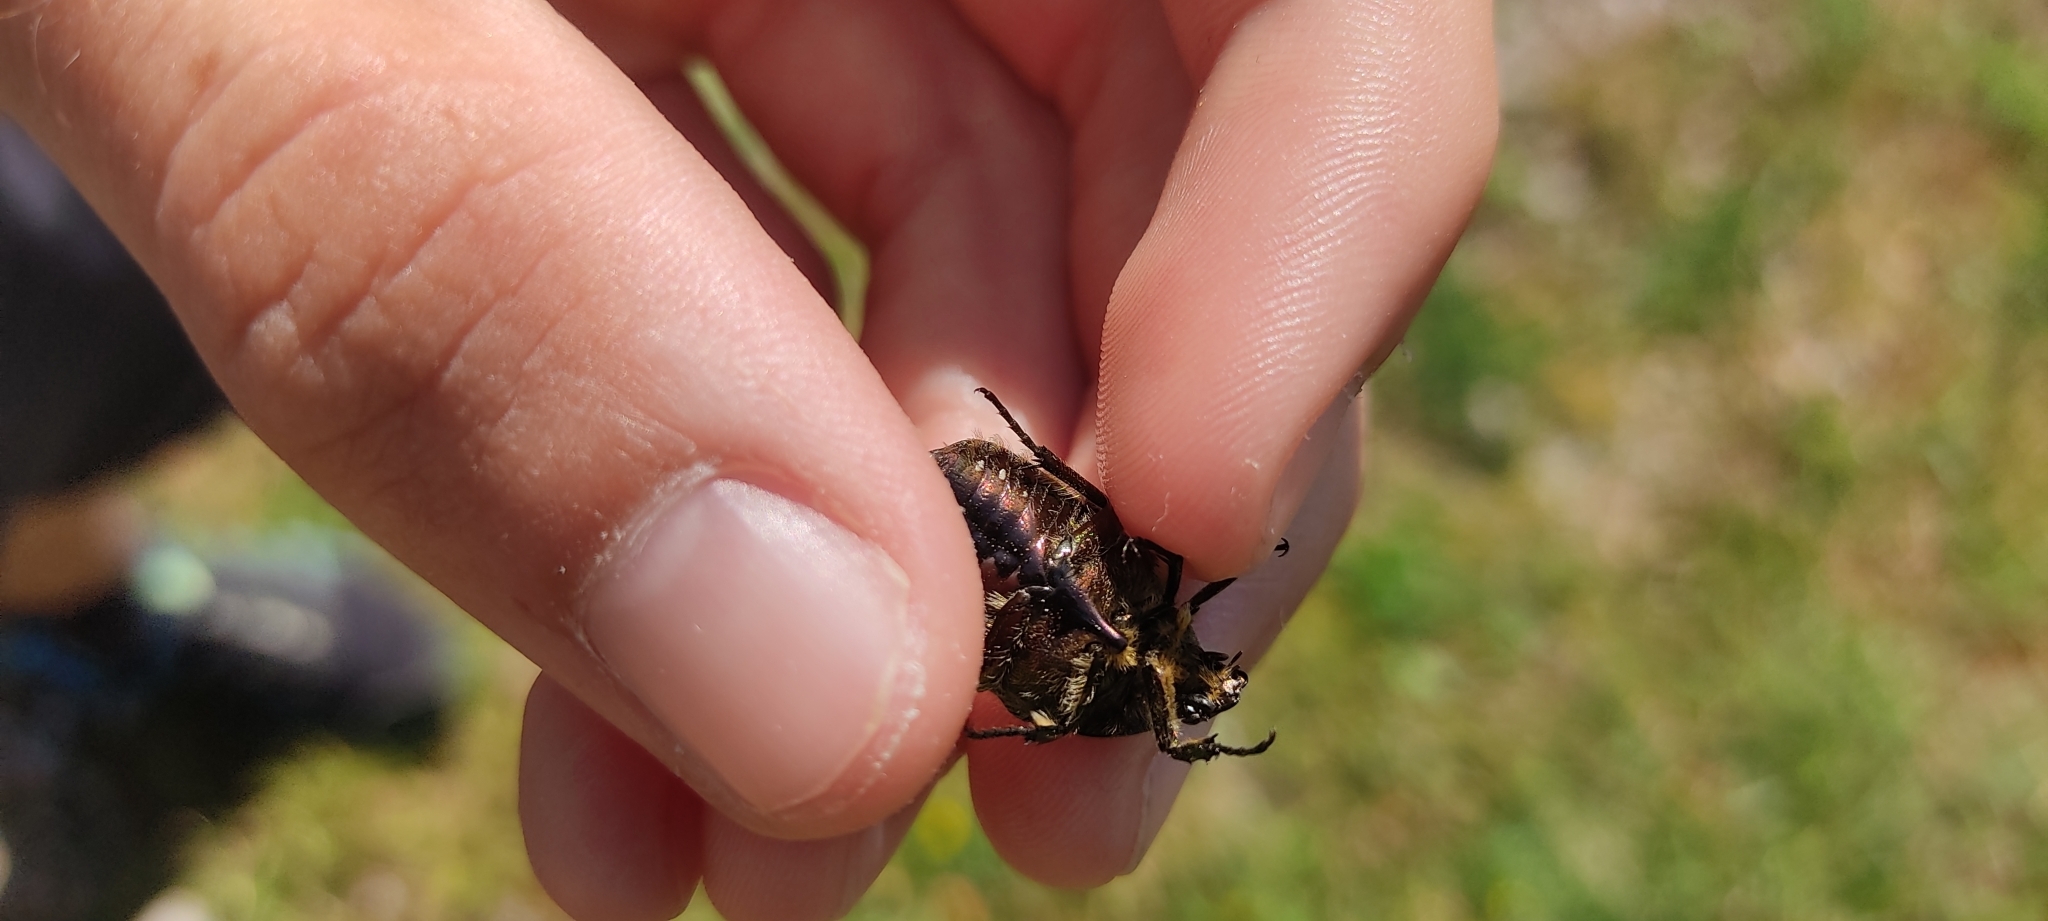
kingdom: Animalia
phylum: Arthropoda
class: Insecta
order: Coleoptera
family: Scarabaeidae
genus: Cetonia
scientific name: Cetonia aurata
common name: Rose chafer
